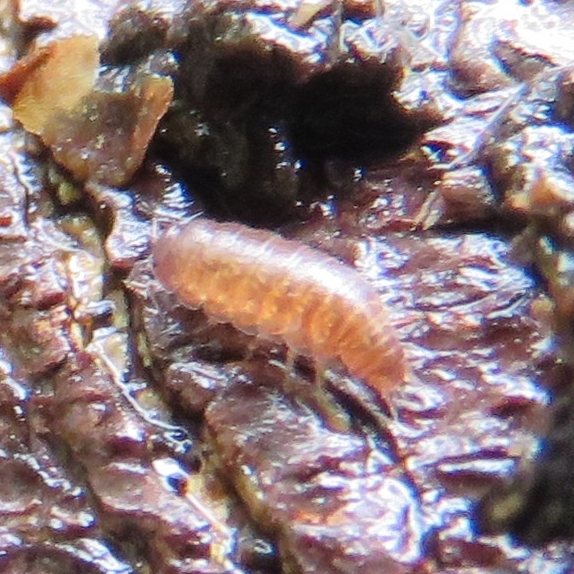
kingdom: Animalia
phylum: Arthropoda
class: Malacostraca
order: Isopoda
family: Trichoniscidae
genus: Trichoniscus
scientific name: Trichoniscus
